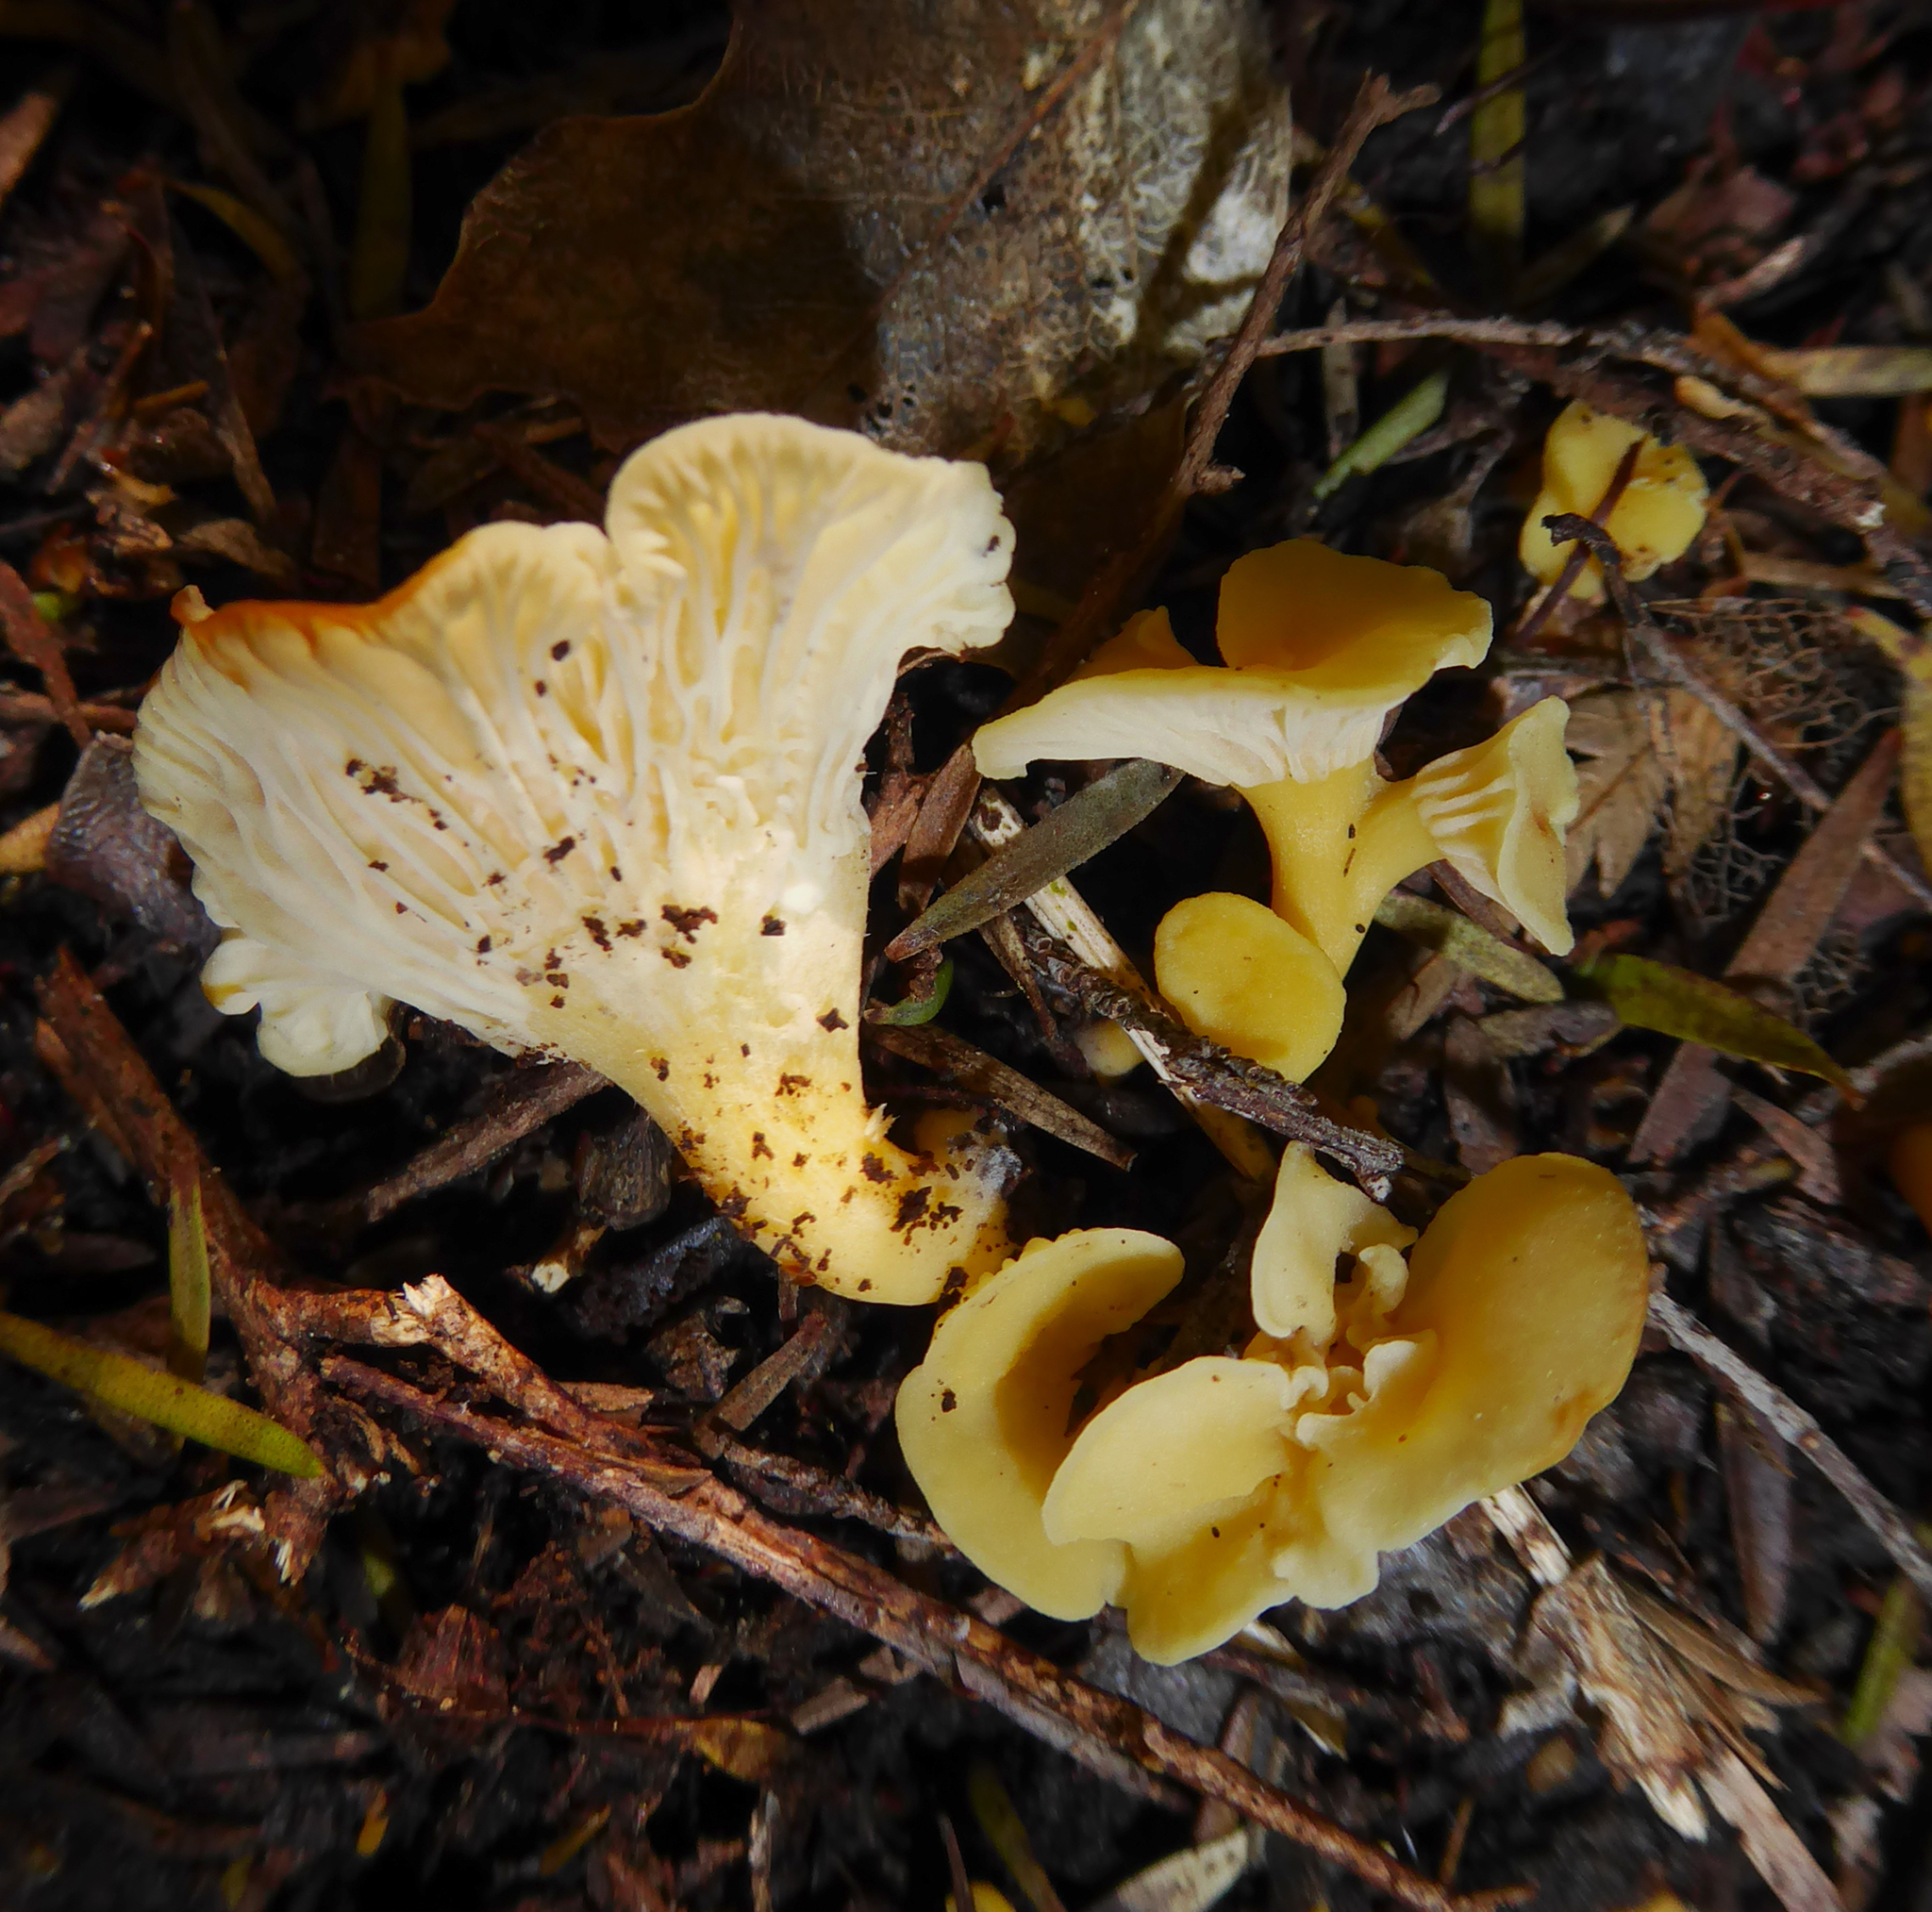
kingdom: Fungi
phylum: Basidiomycota
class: Agaricomycetes
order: Cantharellales
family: Hydnaceae
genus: Cantharellus
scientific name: Cantharellus wellingtonensis
